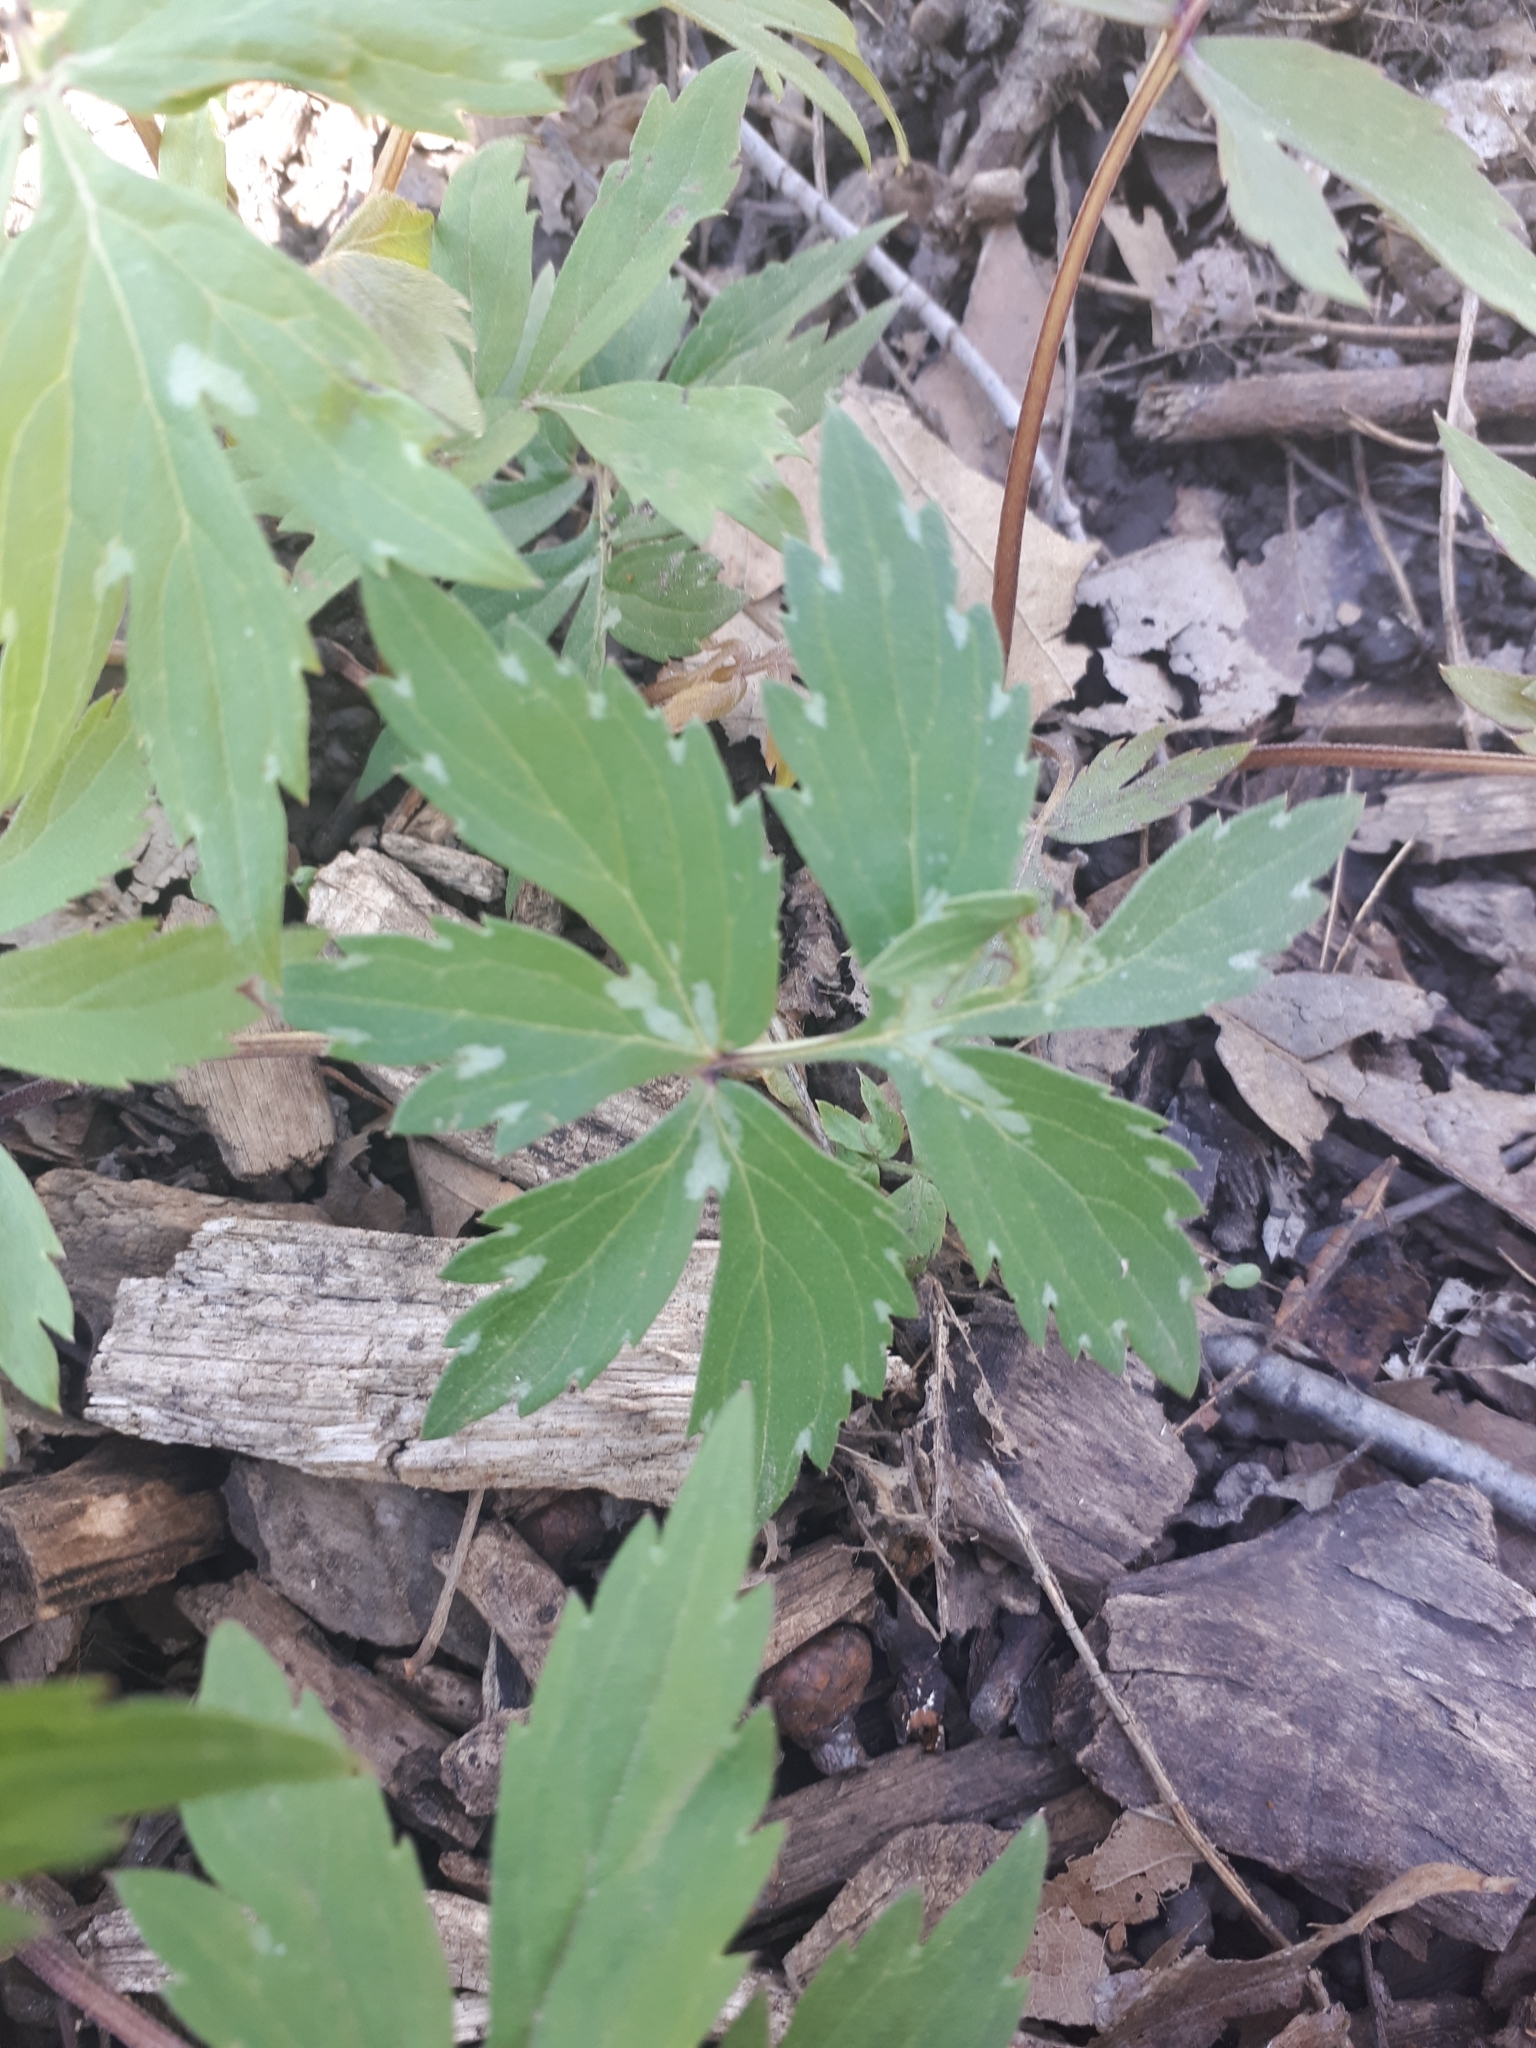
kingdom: Plantae
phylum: Tracheophyta
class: Magnoliopsida
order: Boraginales
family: Hydrophyllaceae
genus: Hydrophyllum
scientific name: Hydrophyllum virginianum
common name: Virginia waterleaf
